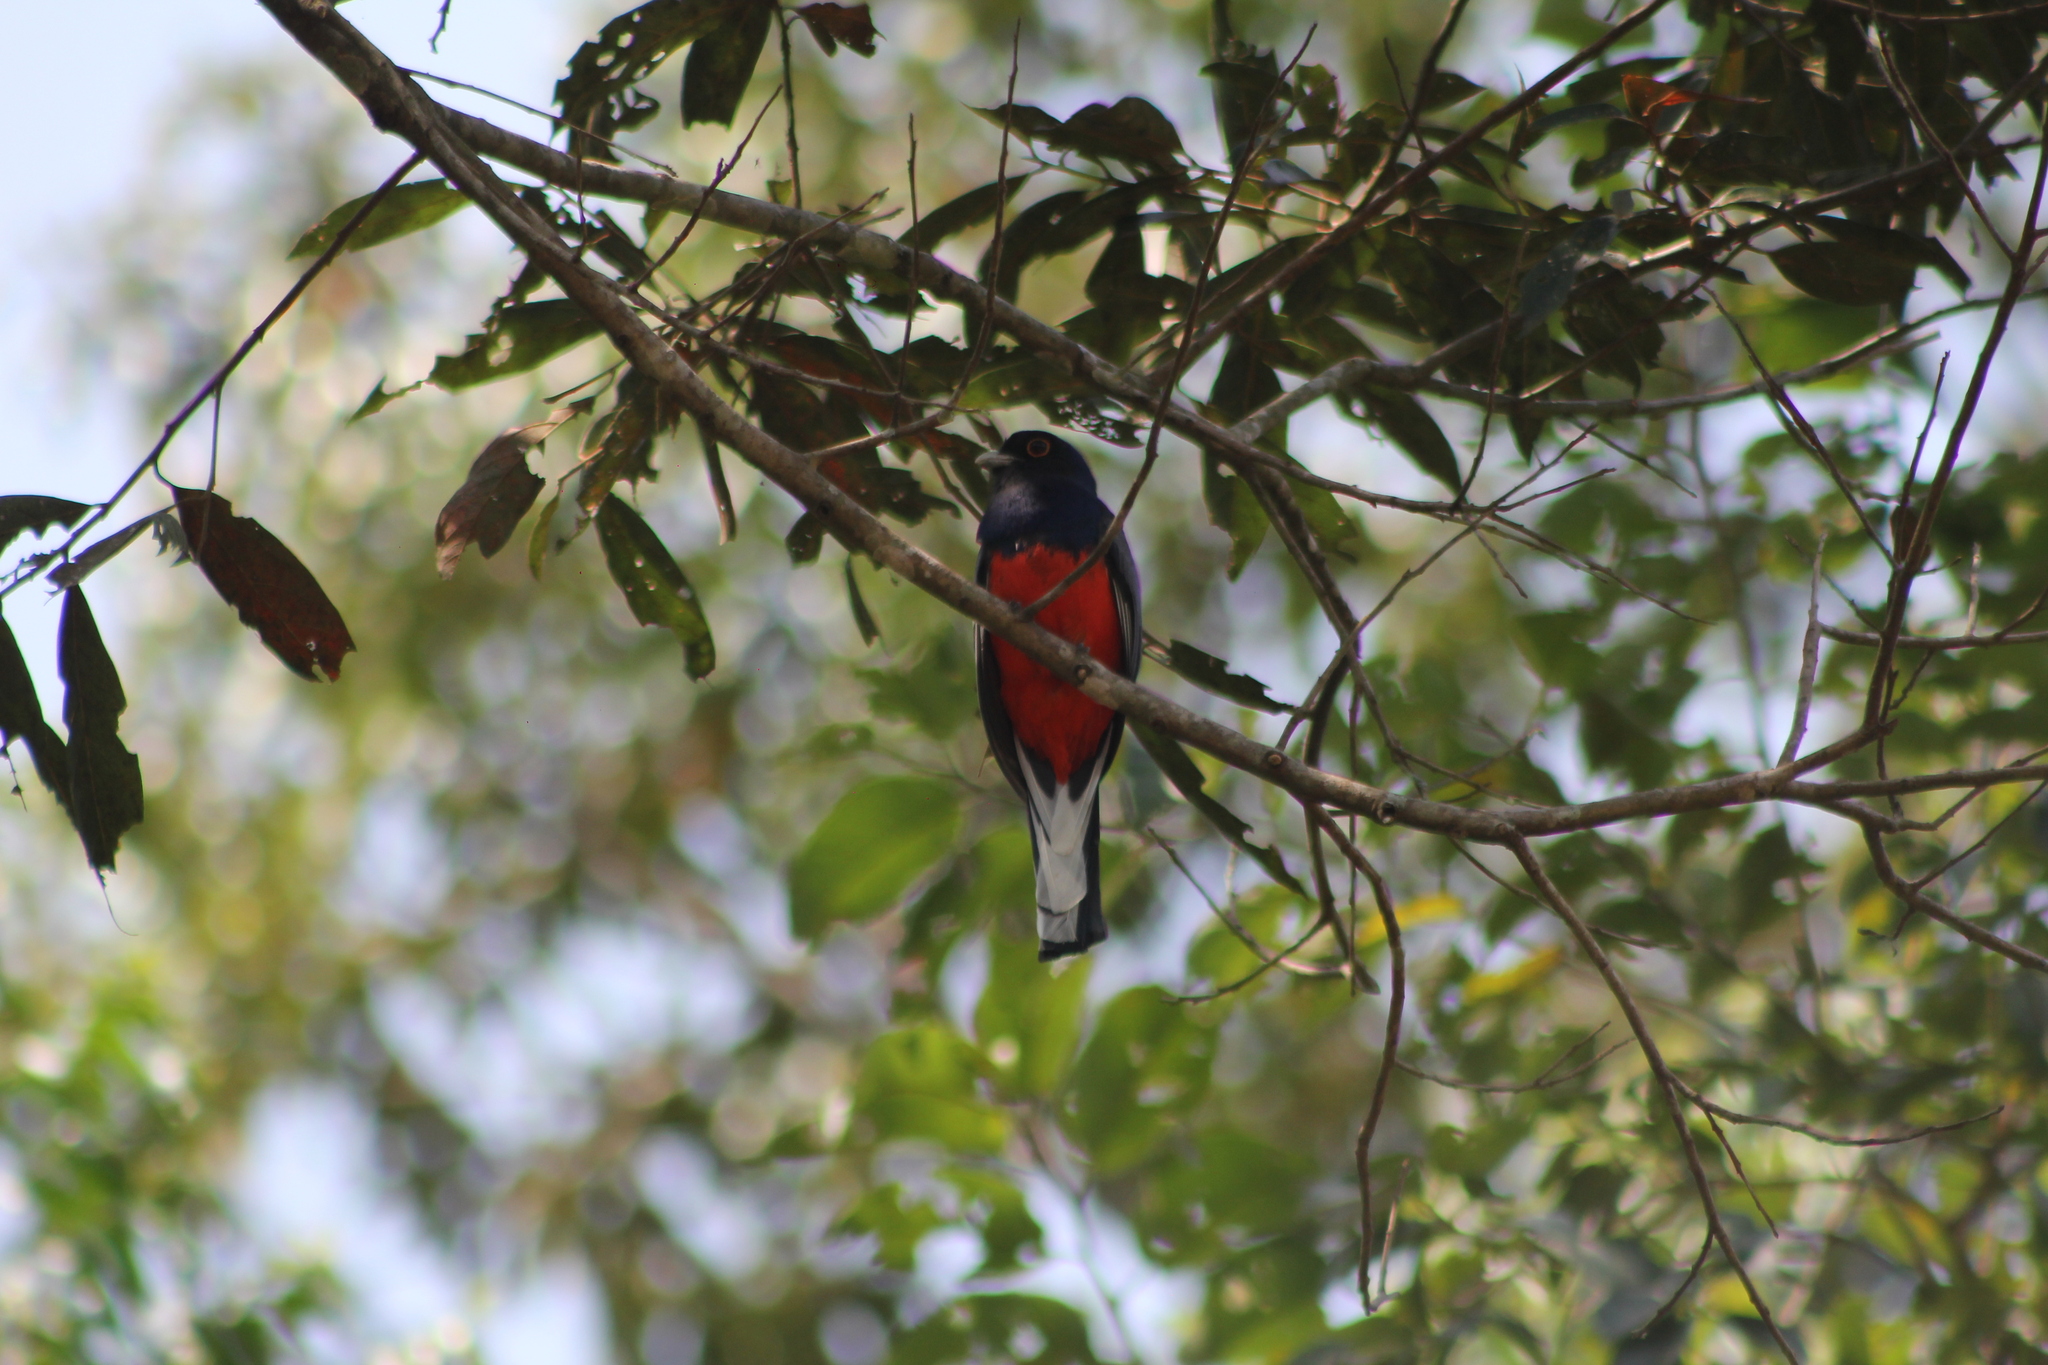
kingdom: Animalia
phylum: Chordata
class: Aves
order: Trogoniformes
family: Trogonidae
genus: Trogon
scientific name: Trogon surrucura
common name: Surucua trogon
